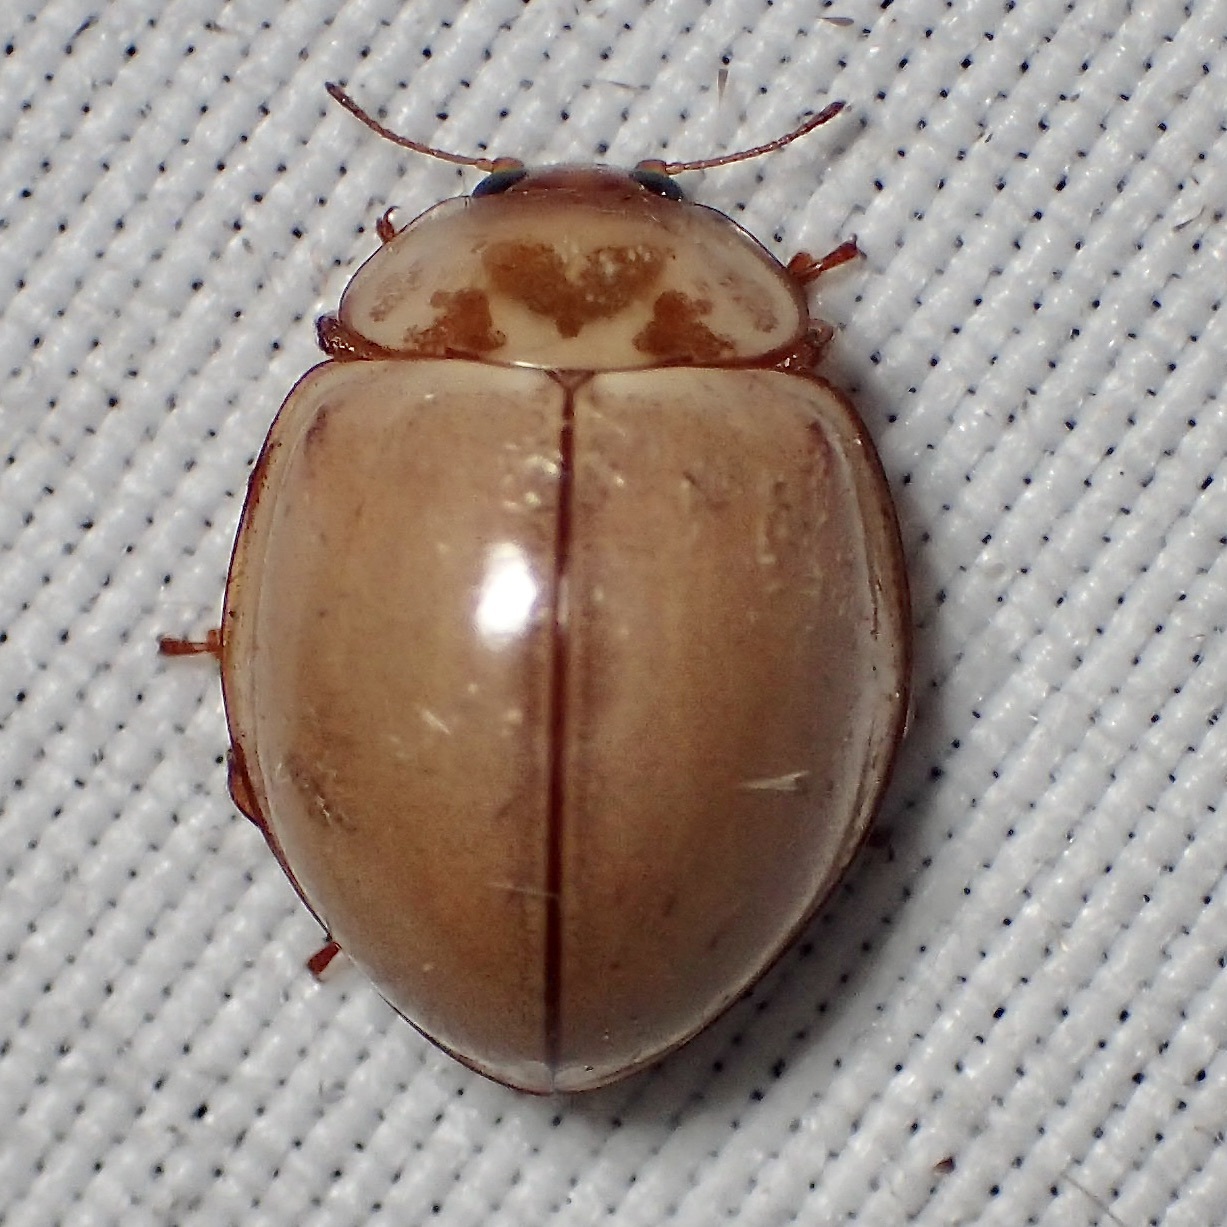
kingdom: Animalia
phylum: Arthropoda
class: Insecta
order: Coleoptera
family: Coccinellidae
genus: Myzia
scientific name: Myzia interrupta
